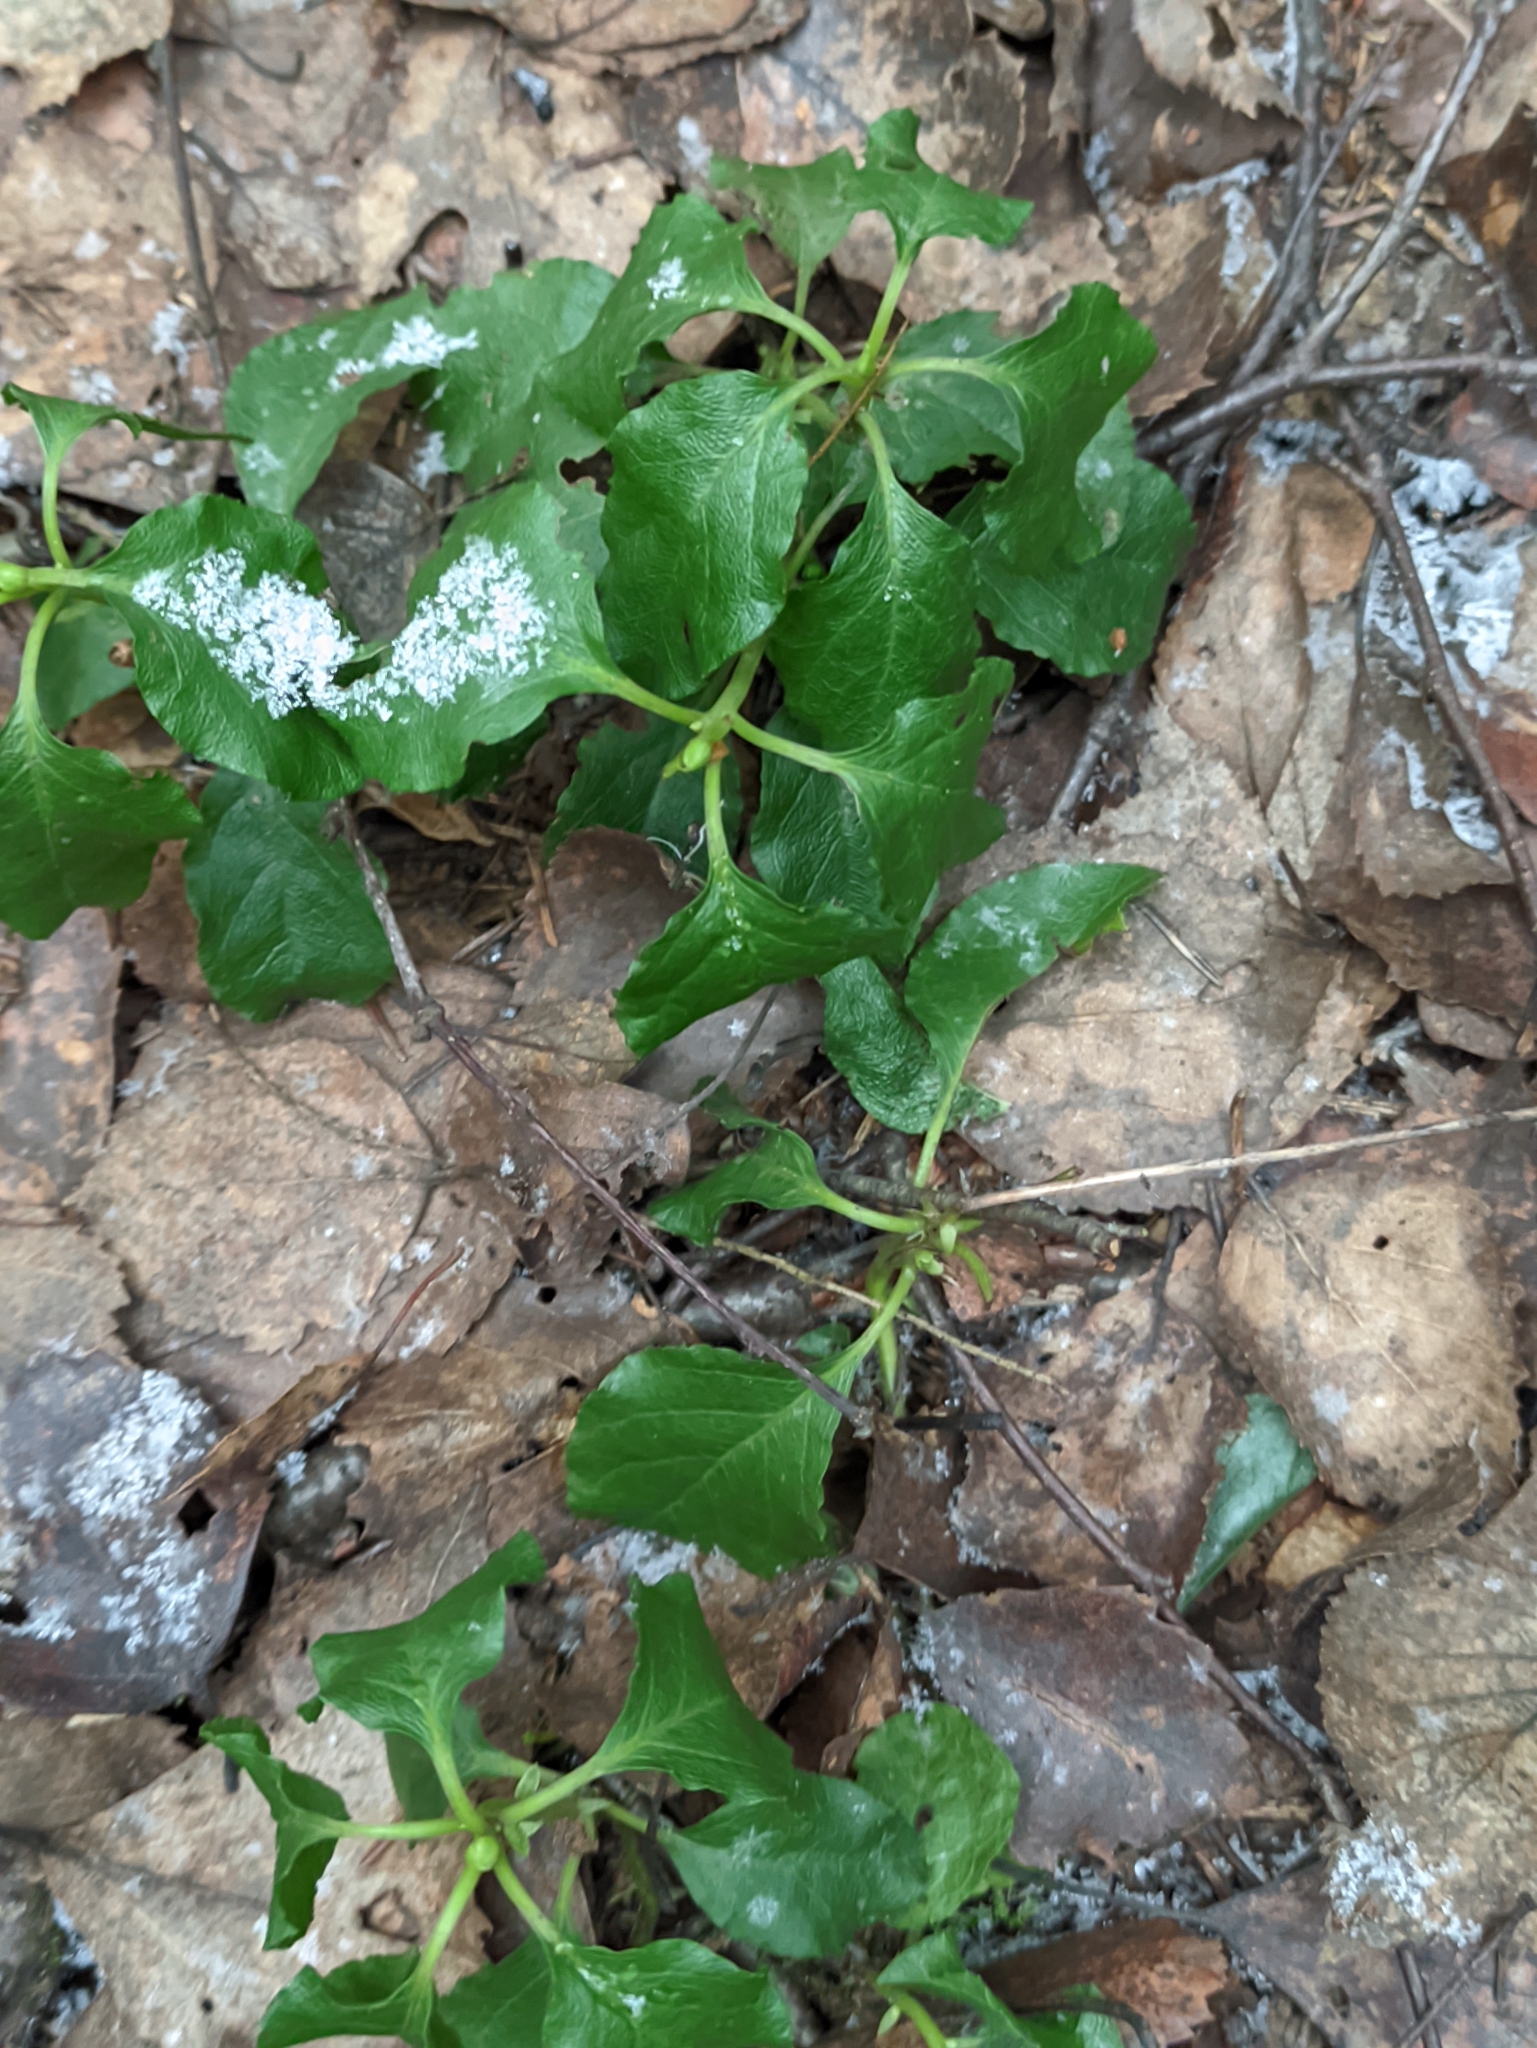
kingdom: Plantae
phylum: Tracheophyta
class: Magnoliopsida
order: Ericales
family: Ericaceae
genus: Orthilia
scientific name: Orthilia secunda
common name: One-sided orthilia
